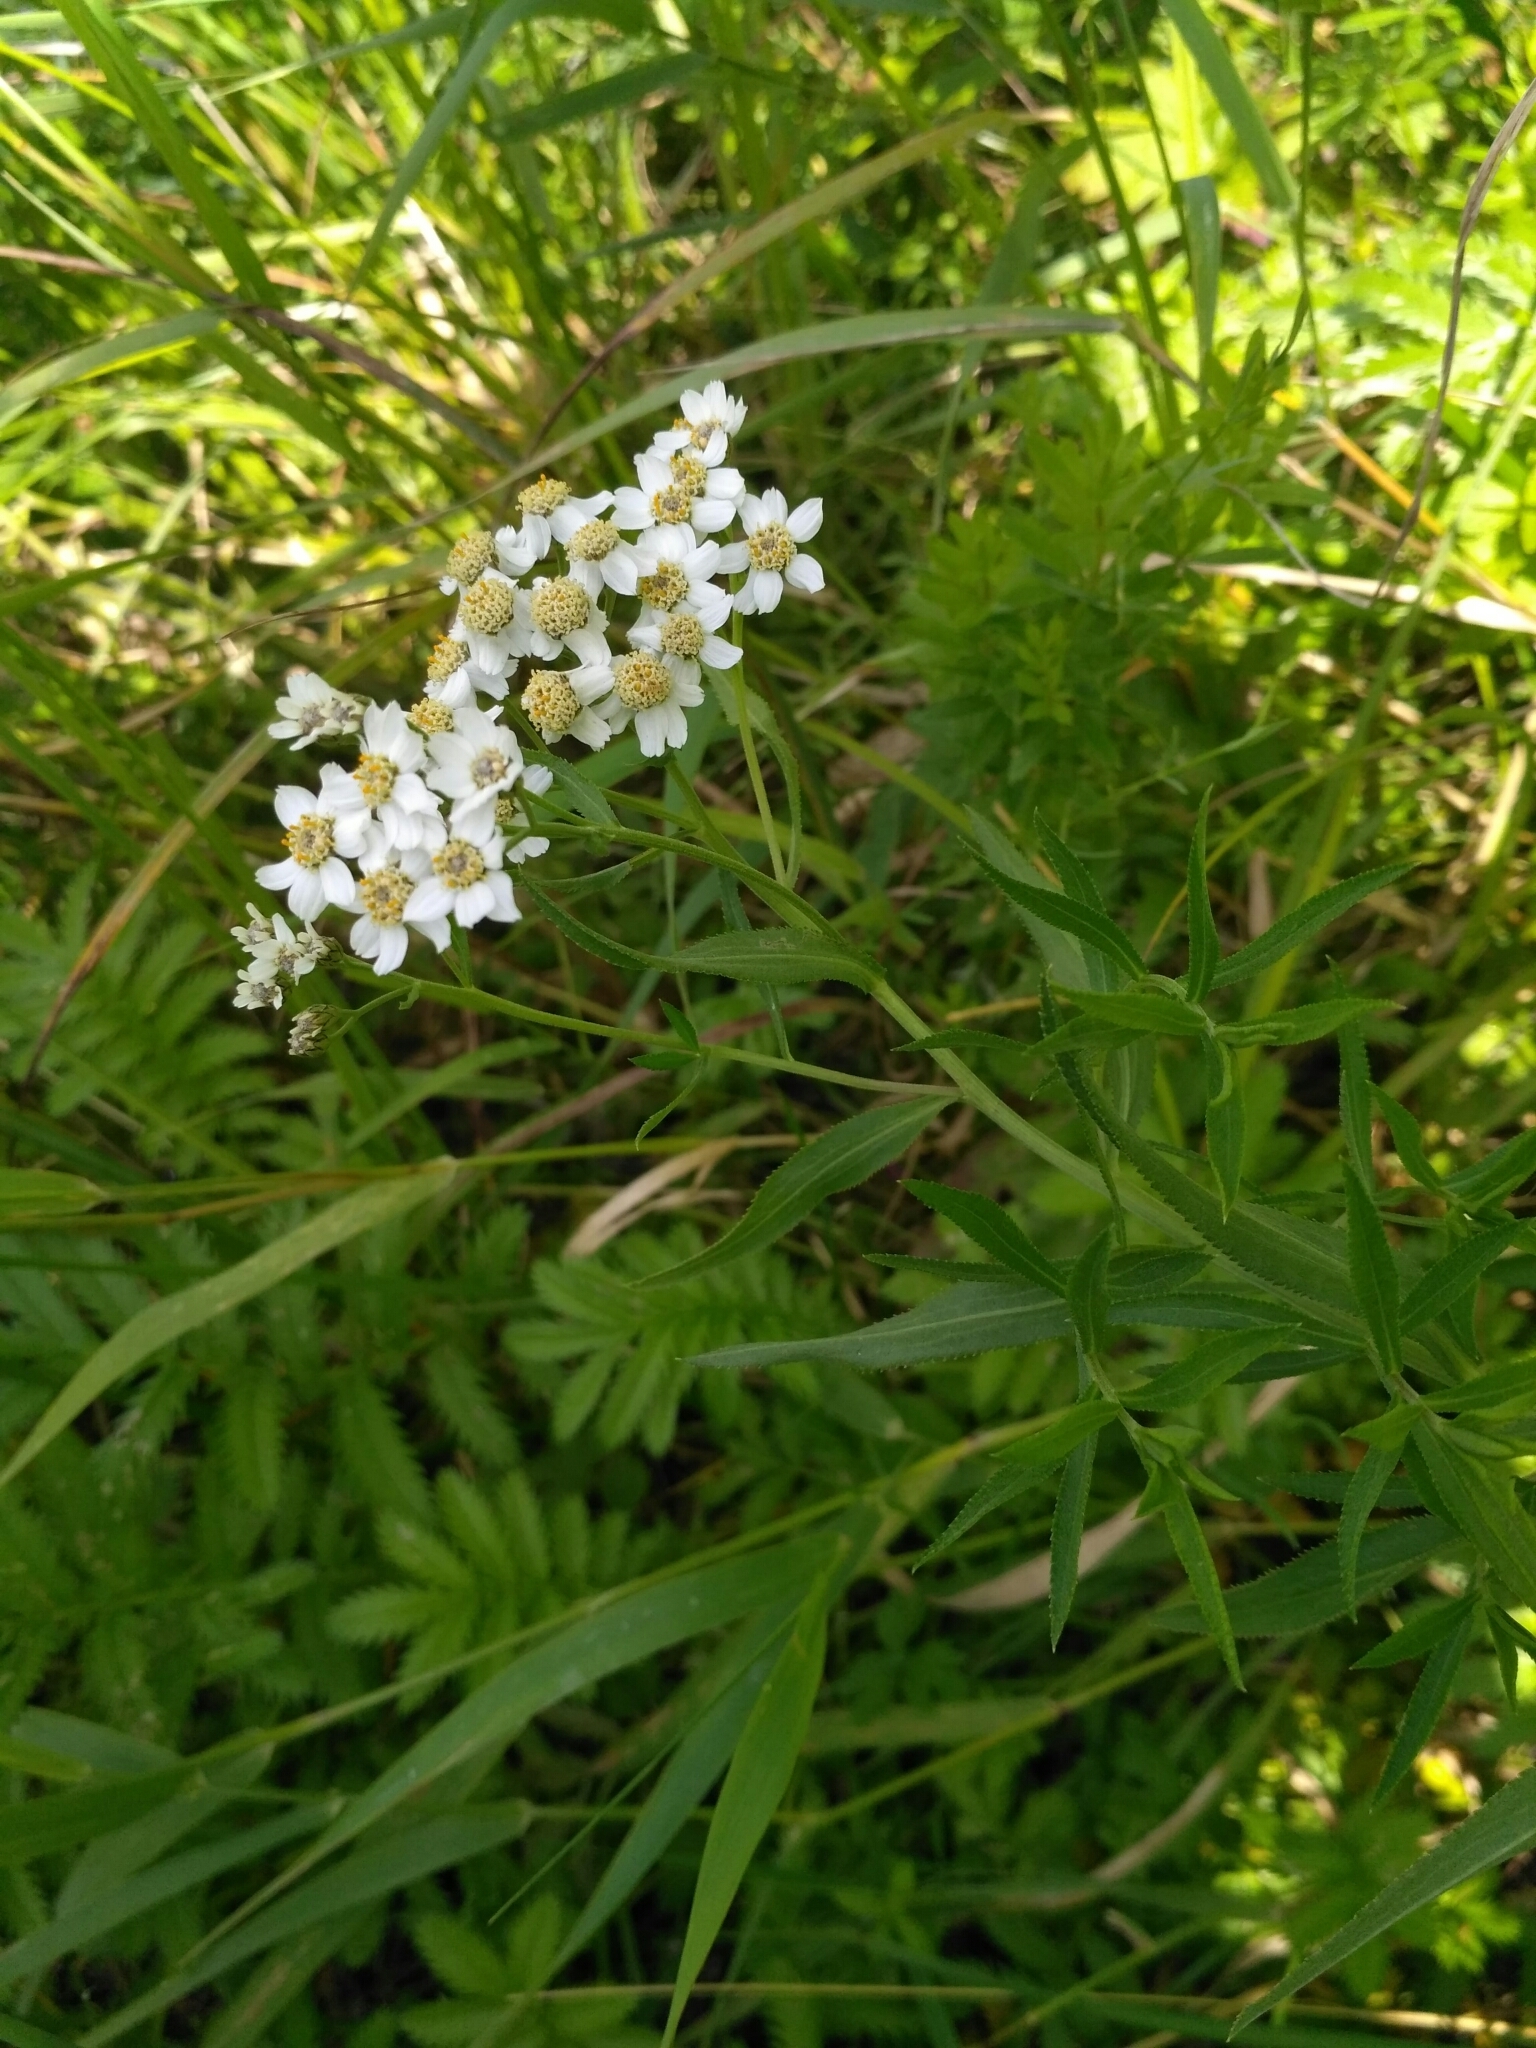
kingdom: Plantae
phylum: Tracheophyta
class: Magnoliopsida
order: Asterales
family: Asteraceae
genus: Achillea
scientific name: Achillea salicifolia
